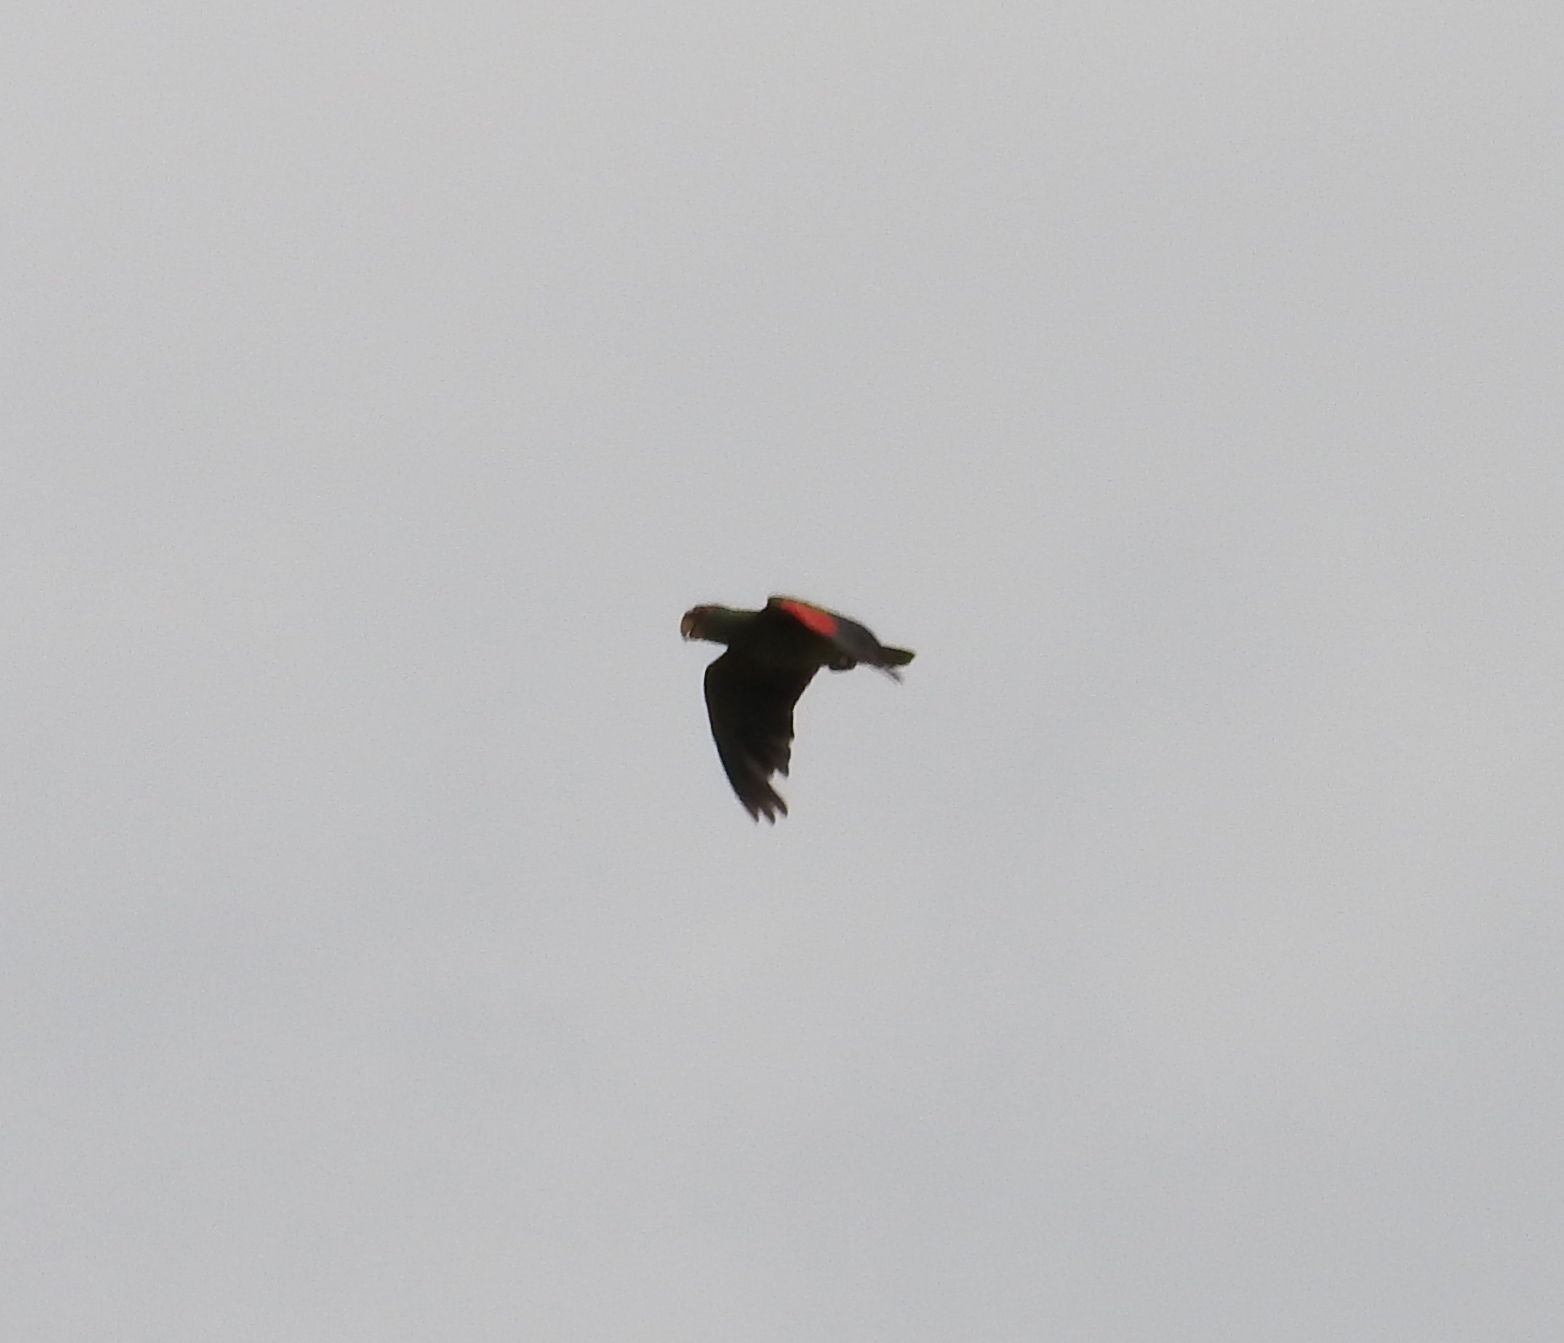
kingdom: Animalia
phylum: Chordata
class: Aves
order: Psittaciformes
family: Psittacidae
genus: Amazona
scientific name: Amazona albifrons
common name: White-fronted amazon
